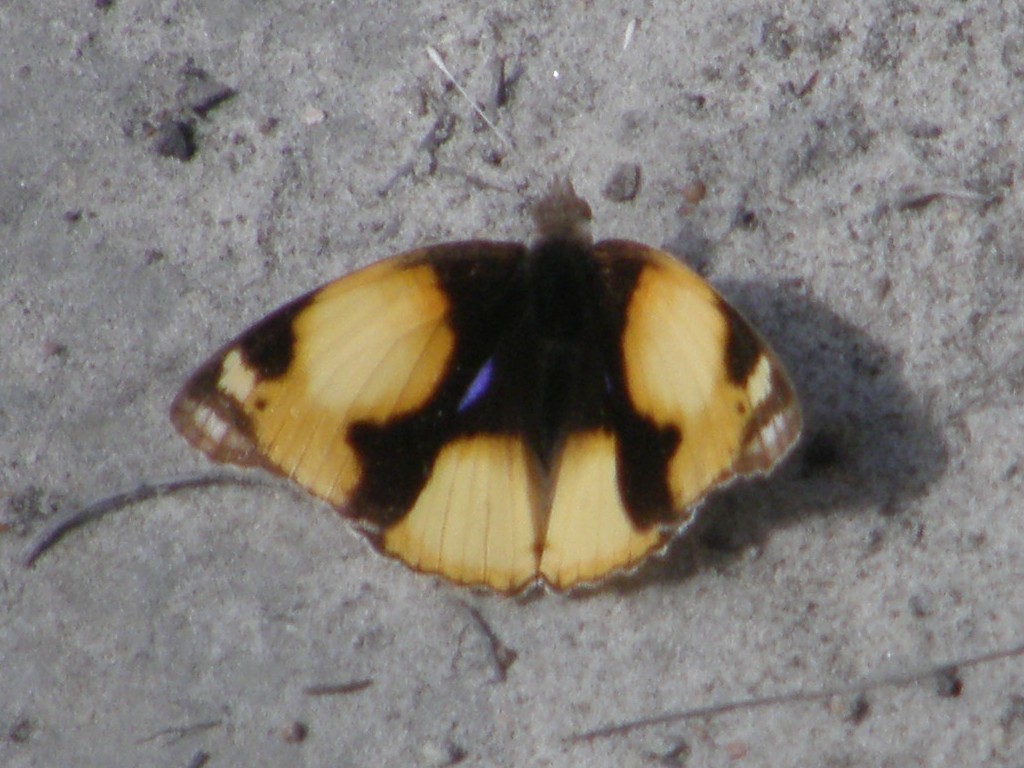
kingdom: Animalia
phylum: Arthropoda
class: Insecta
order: Lepidoptera
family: Nymphalidae
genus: Junonia
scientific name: Junonia hierta
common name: Yellow pansy
